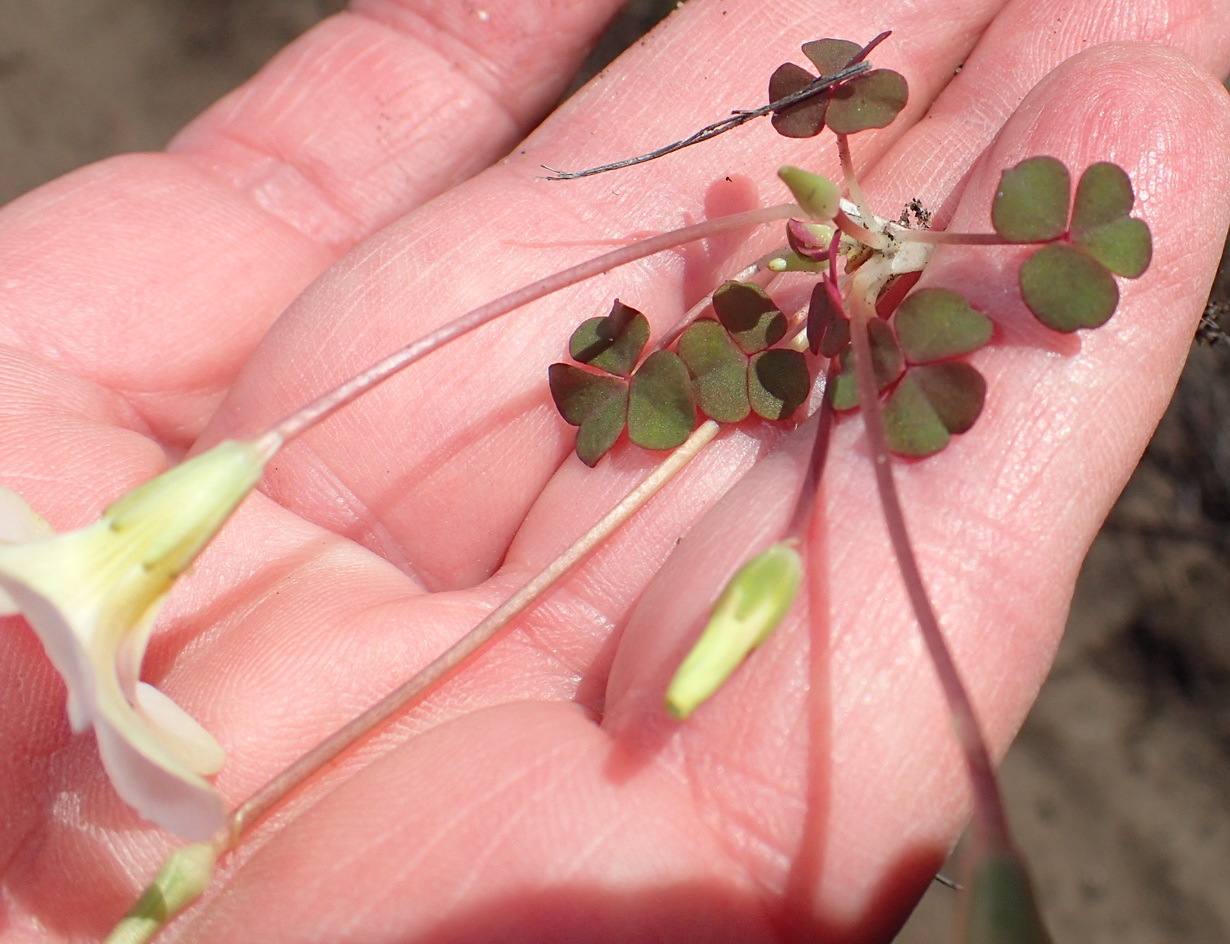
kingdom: Plantae
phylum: Tracheophyta
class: Magnoliopsida
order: Oxalidales
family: Oxalidaceae
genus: Oxalis
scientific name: Oxalis depressa
